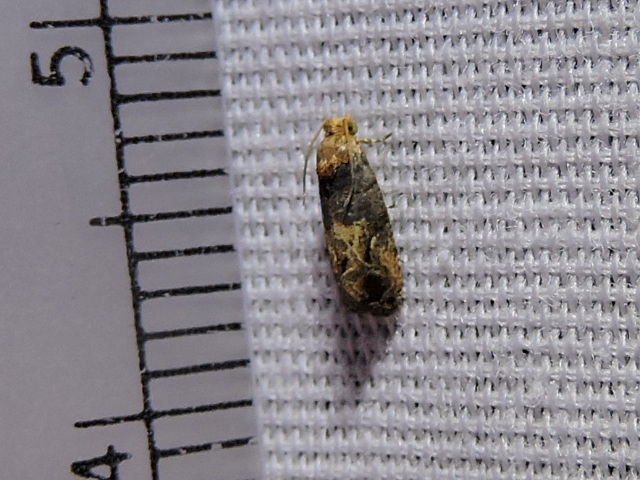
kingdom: Animalia
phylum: Arthropoda
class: Insecta
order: Lepidoptera
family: Tortricidae
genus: Paralobesia
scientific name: Paralobesia viteana
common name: Grape berry moth
